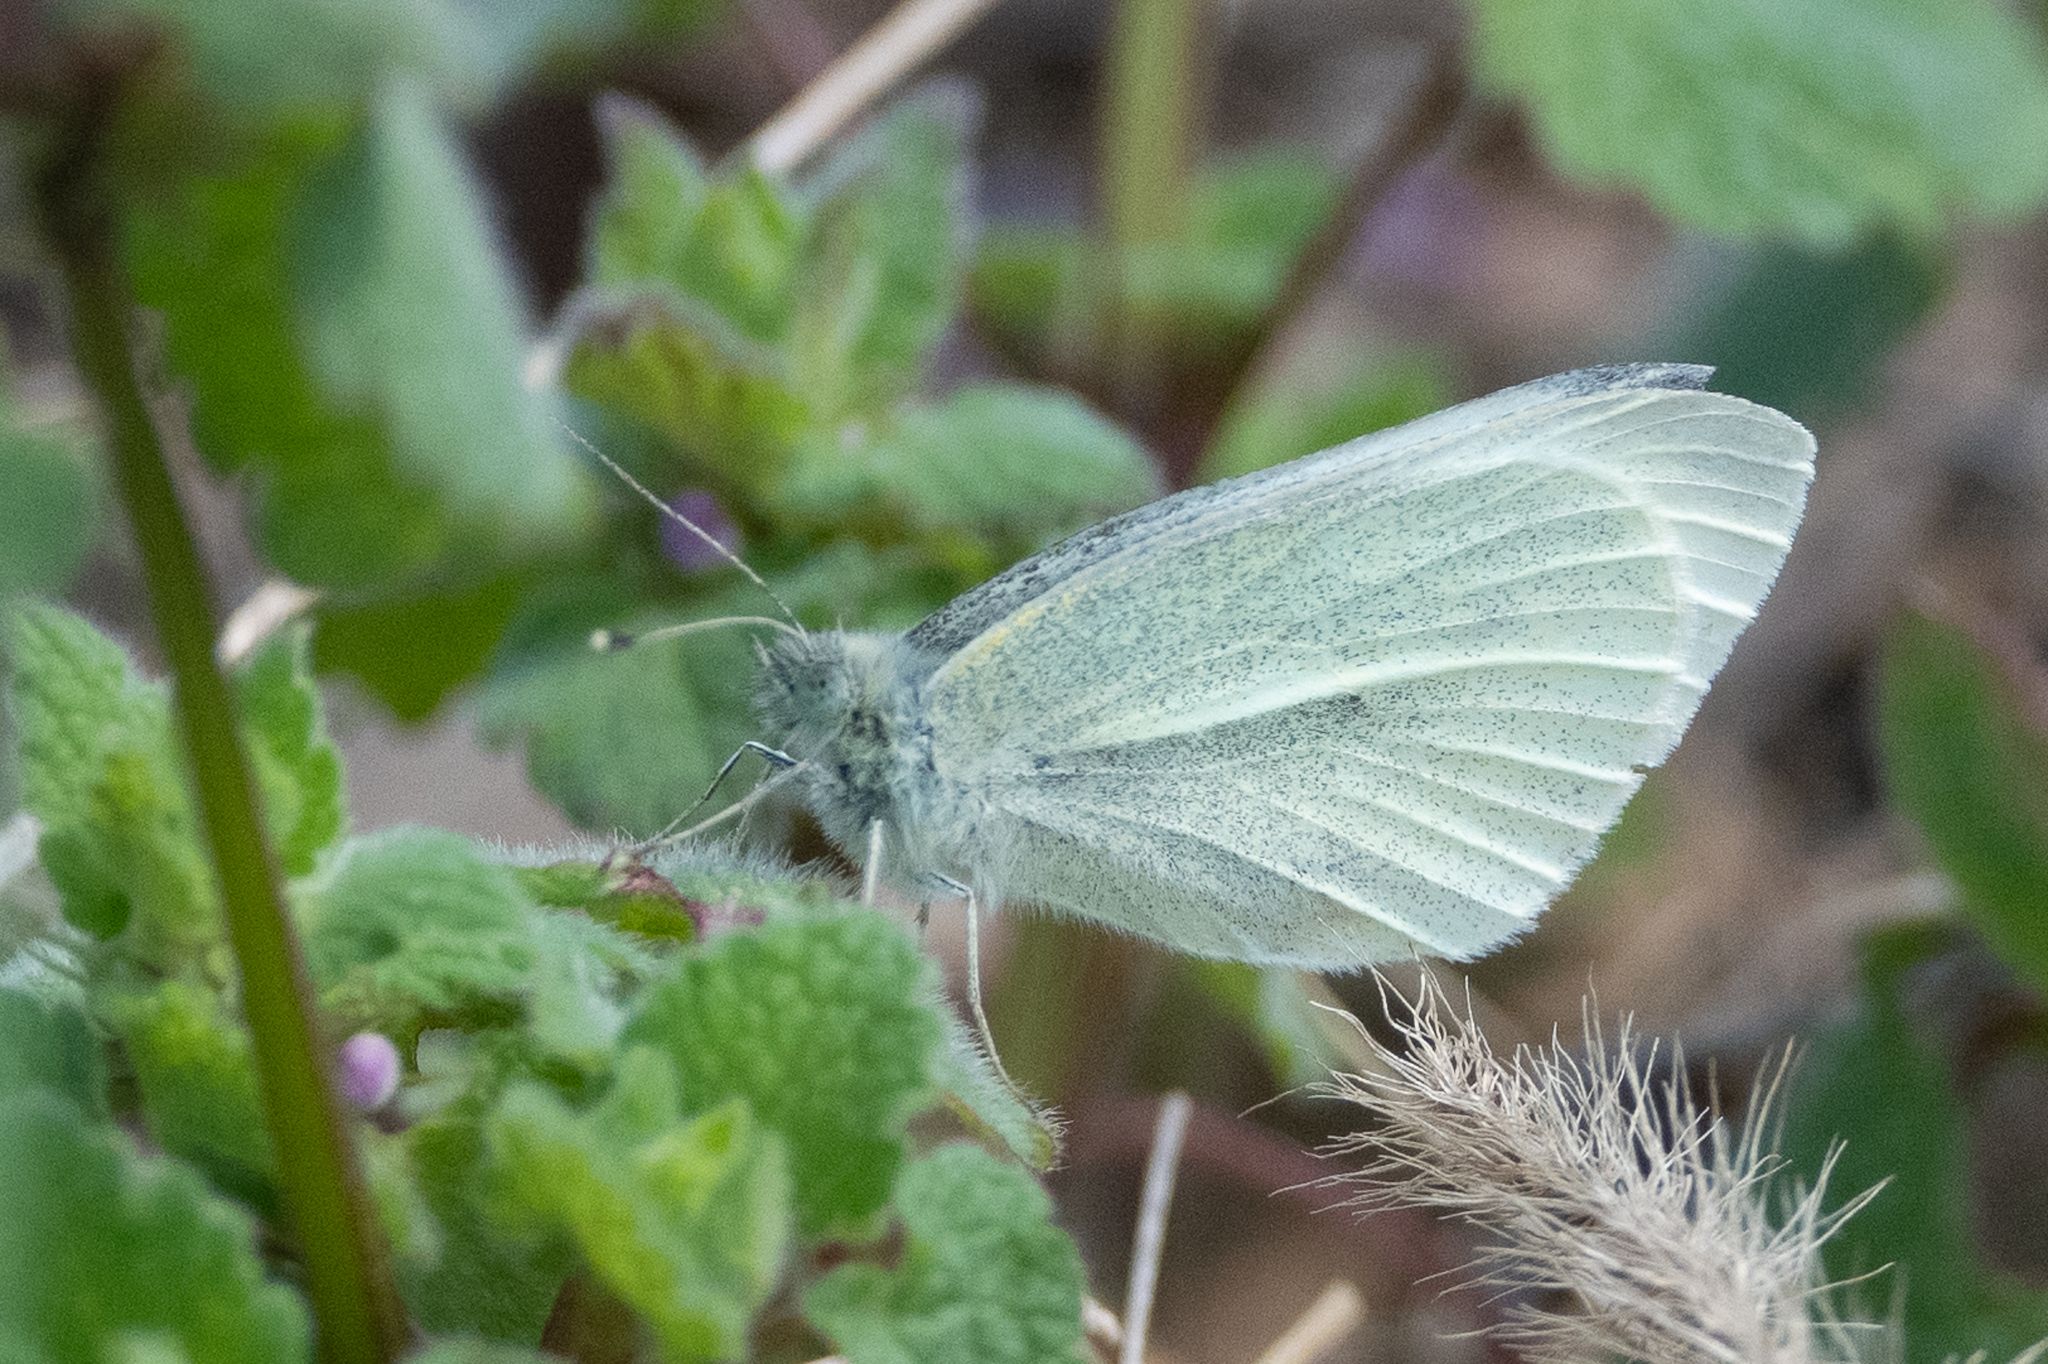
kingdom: Animalia
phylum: Arthropoda
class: Insecta
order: Lepidoptera
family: Pieridae
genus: Pieris
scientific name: Pieris rapae
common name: Small white
